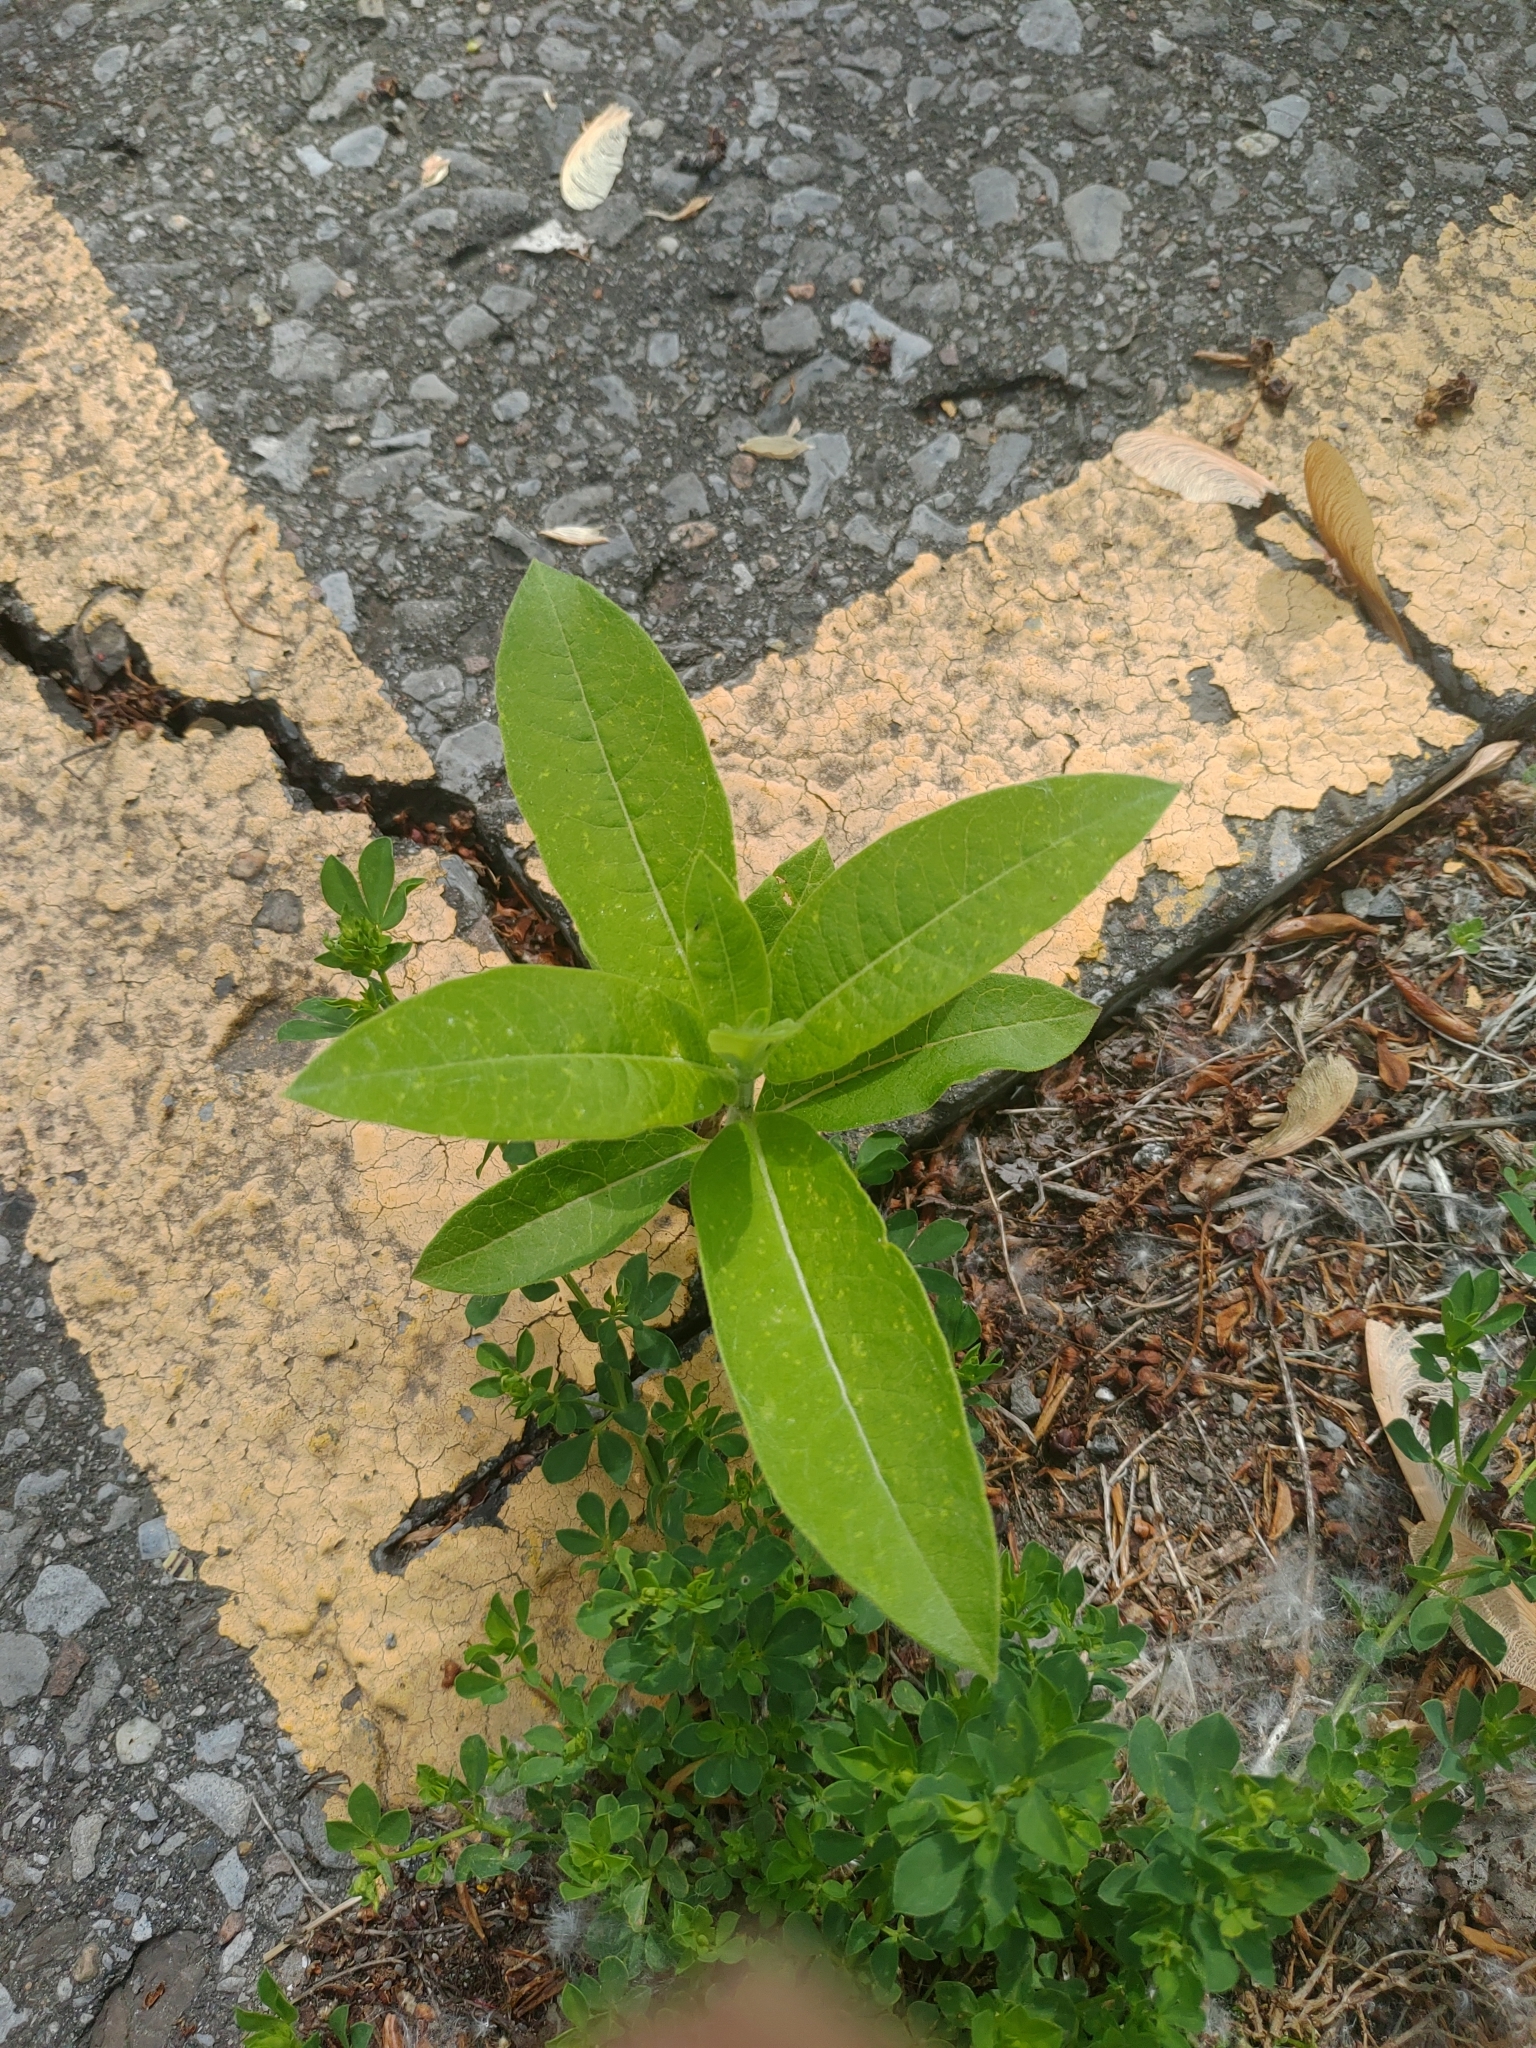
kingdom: Plantae
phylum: Tracheophyta
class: Magnoliopsida
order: Gentianales
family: Apocynaceae
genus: Asclepias
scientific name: Asclepias syriaca
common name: Common milkweed
